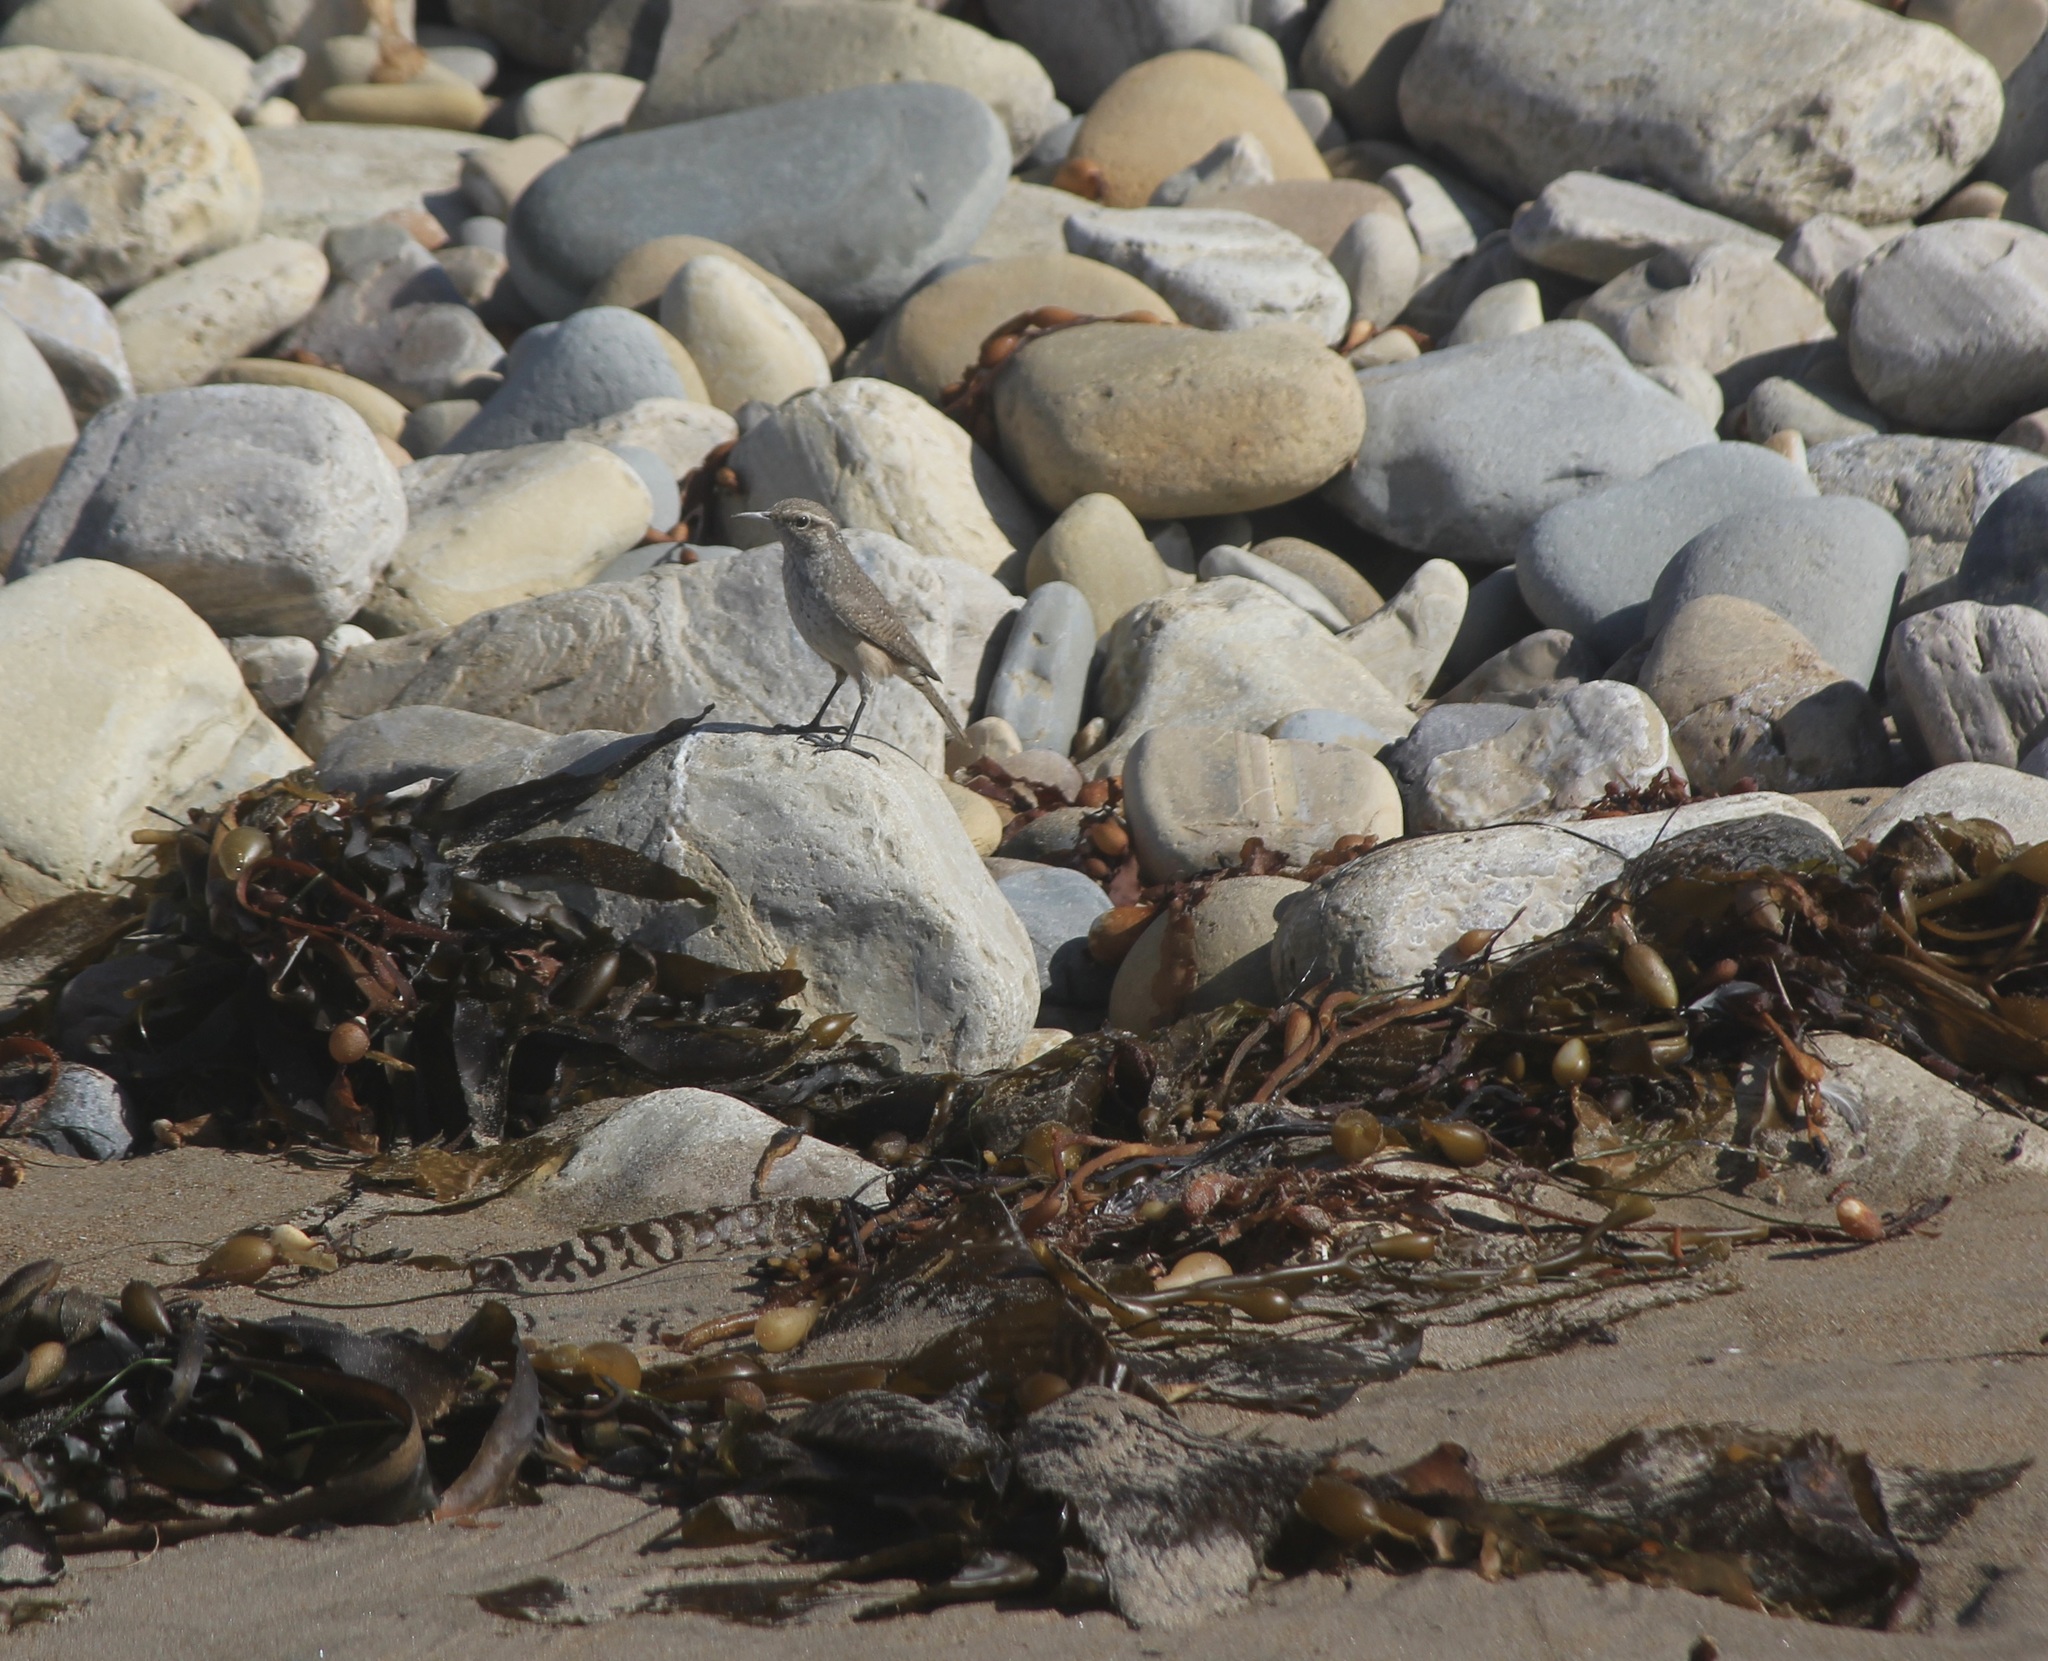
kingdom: Animalia
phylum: Chordata
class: Aves
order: Passeriformes
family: Troglodytidae
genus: Salpinctes
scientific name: Salpinctes obsoletus
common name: Rock wren
